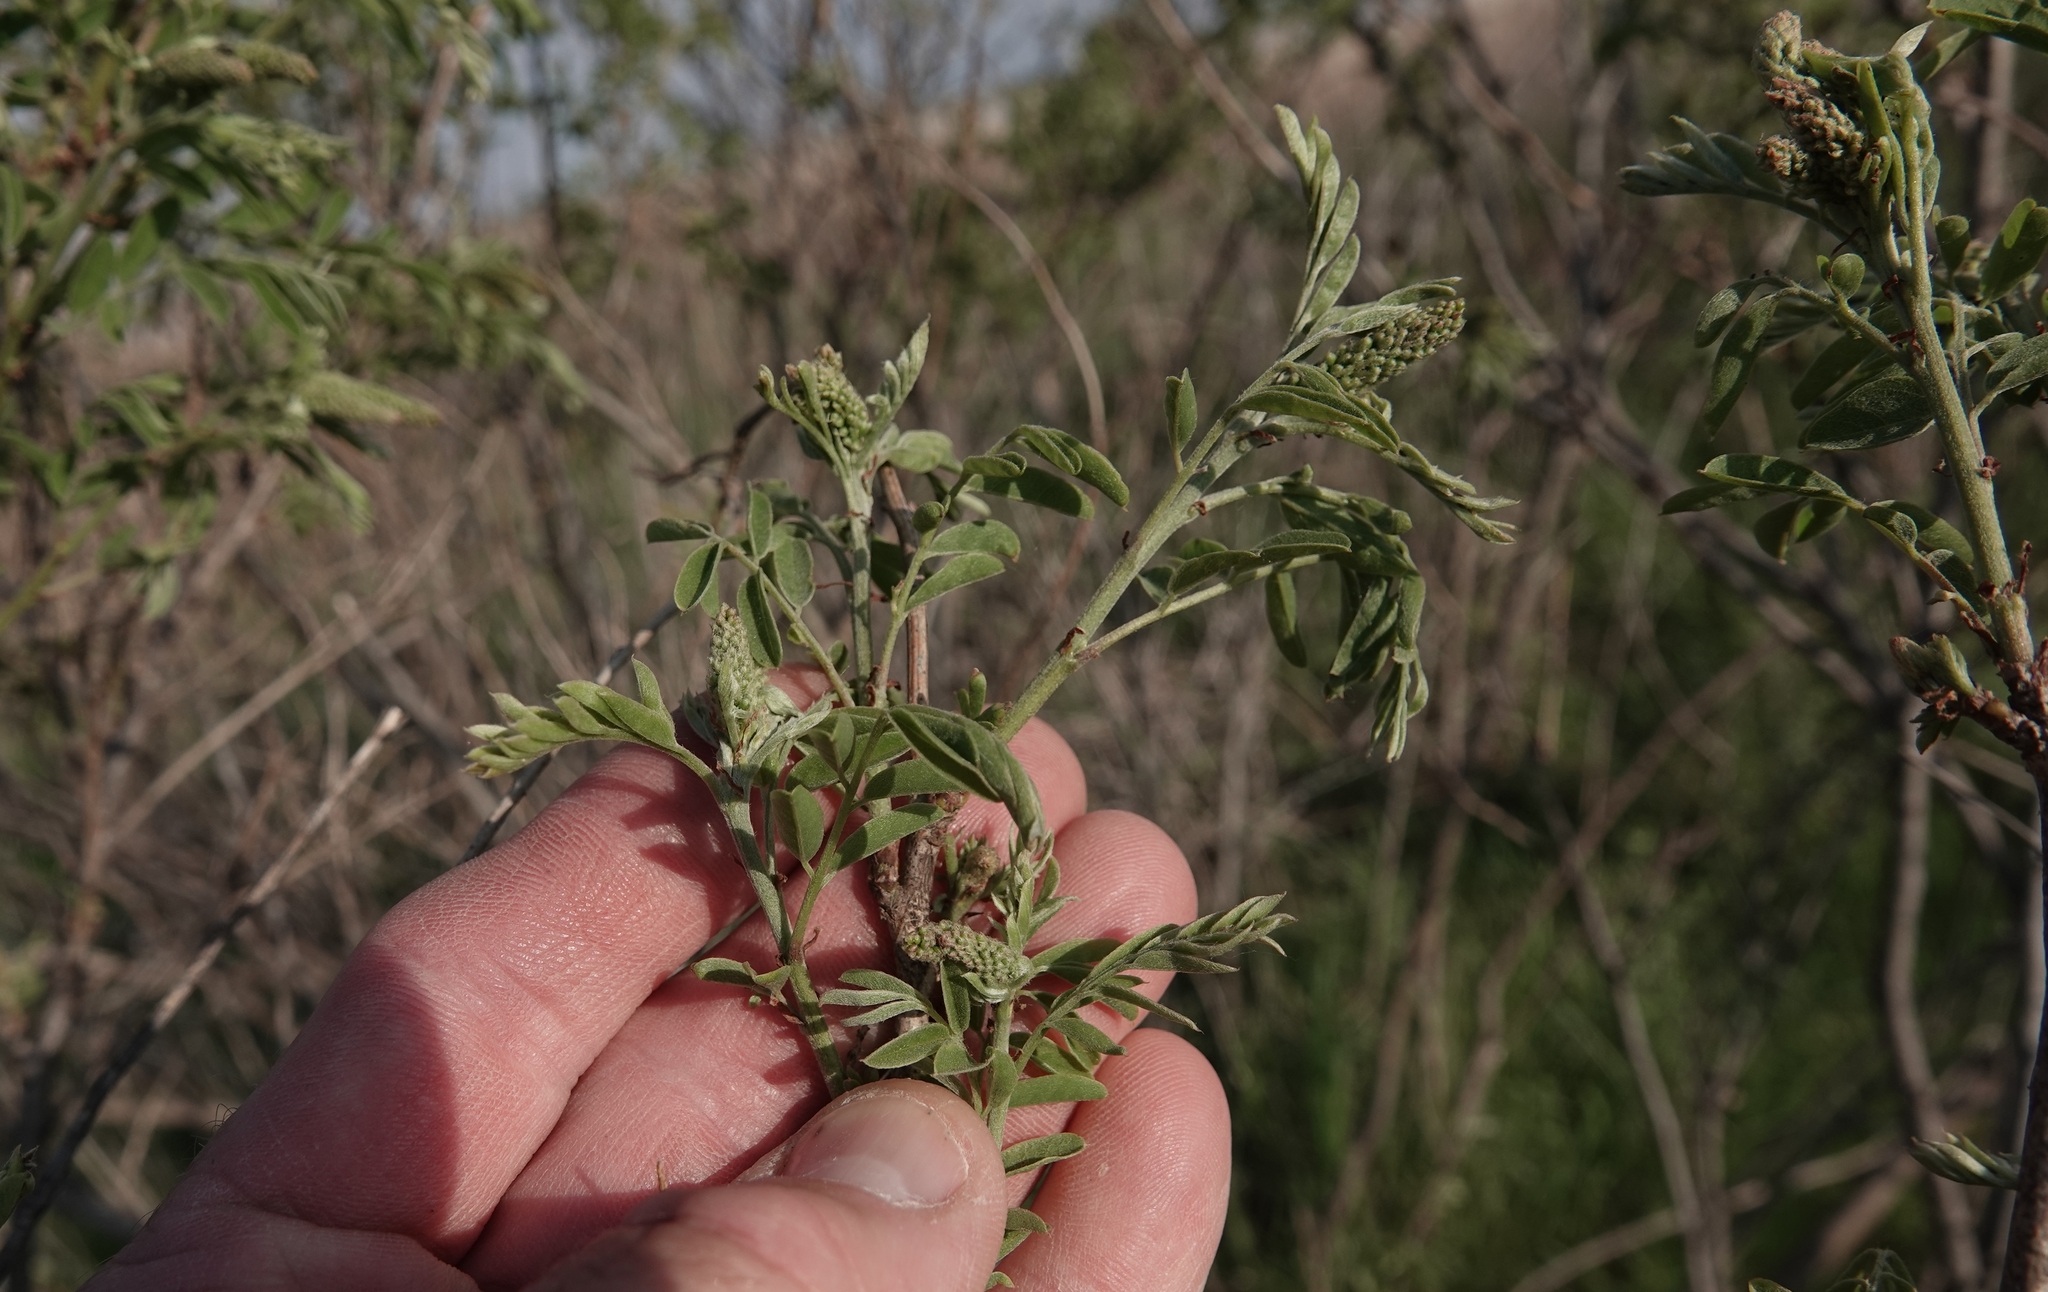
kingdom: Plantae
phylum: Tracheophyta
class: Magnoliopsida
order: Fabales
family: Fabaceae
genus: Amorpha
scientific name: Amorpha fruticosa
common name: False indigo
